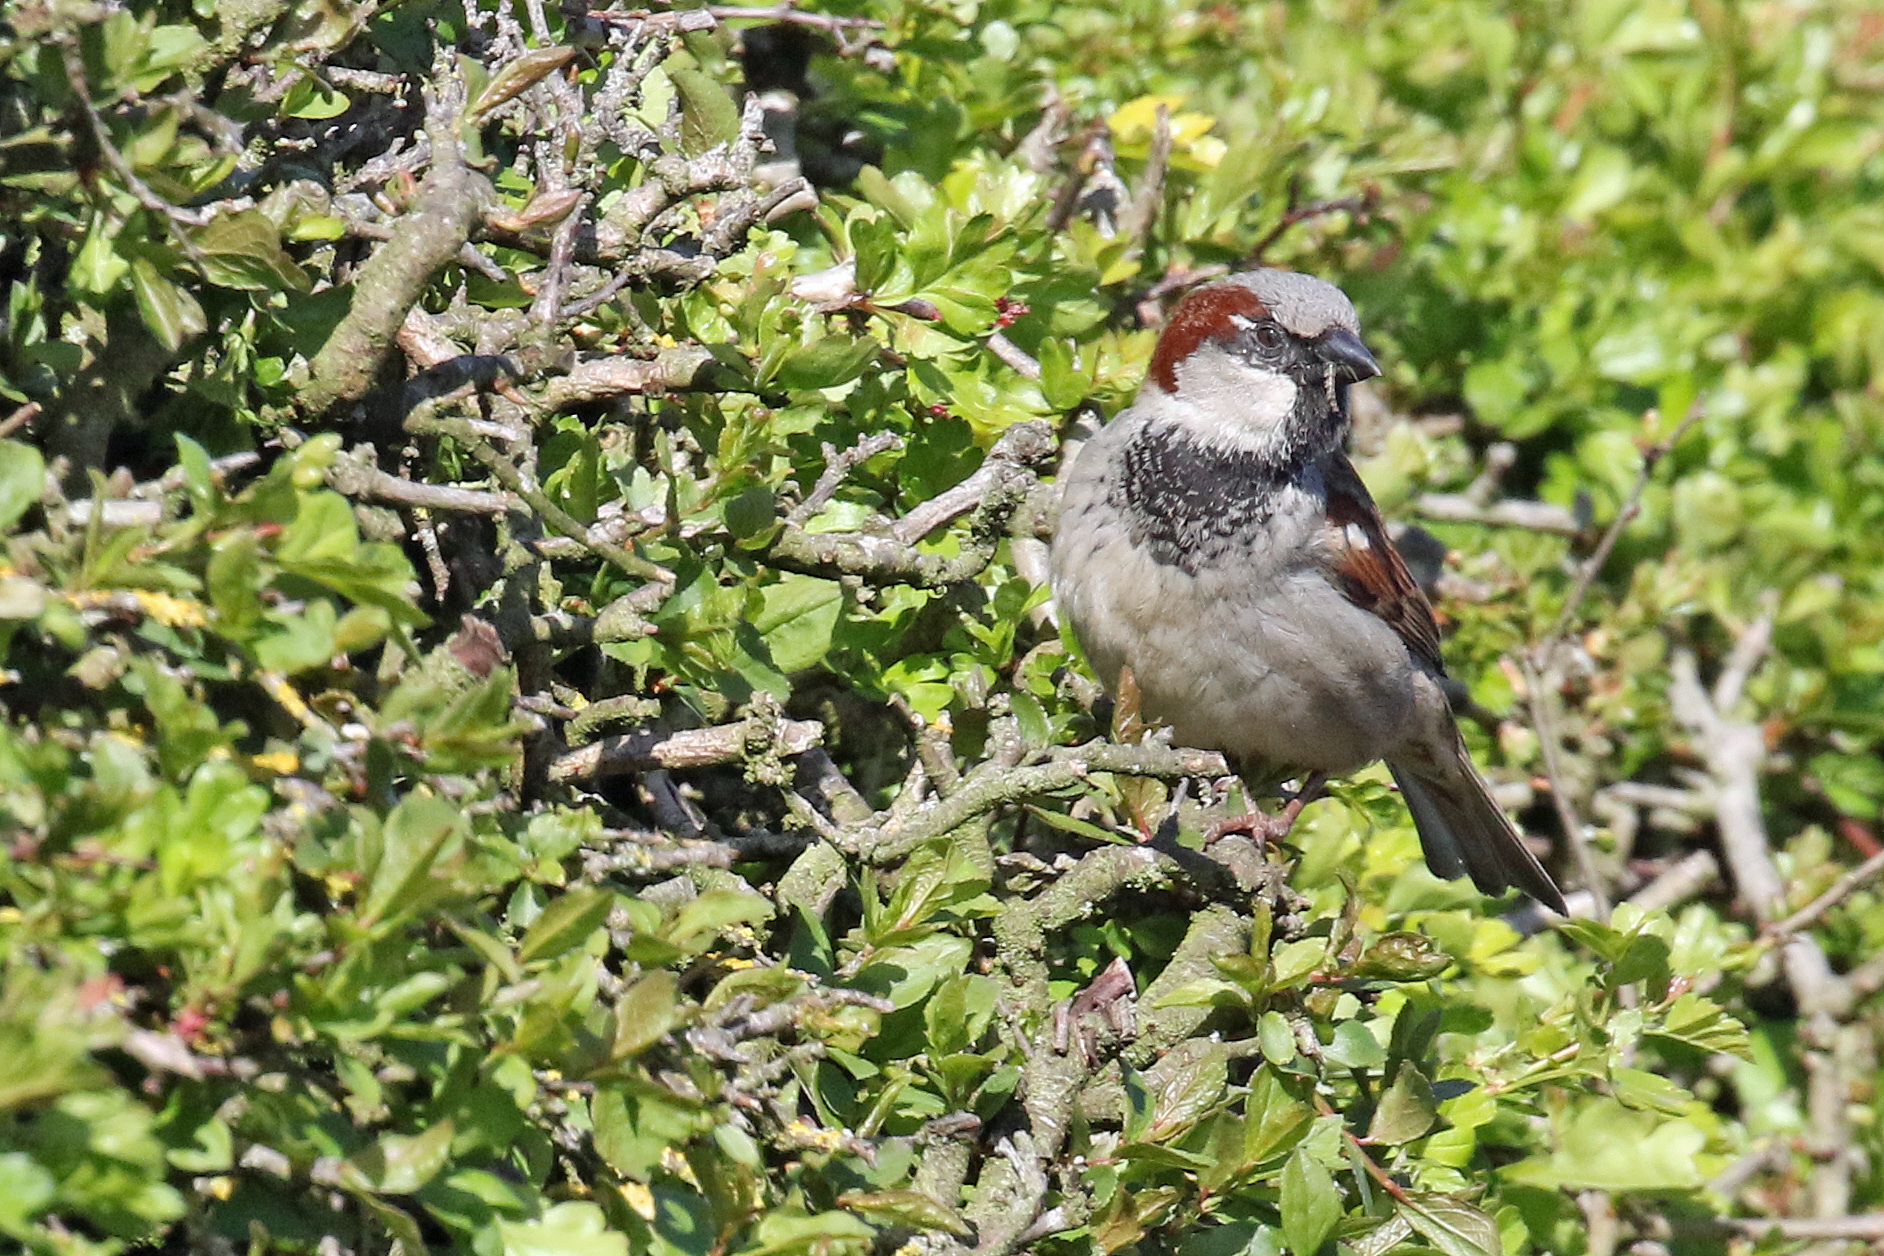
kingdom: Animalia
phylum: Chordata
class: Aves
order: Passeriformes
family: Passeridae
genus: Passer
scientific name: Passer domesticus
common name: House sparrow
